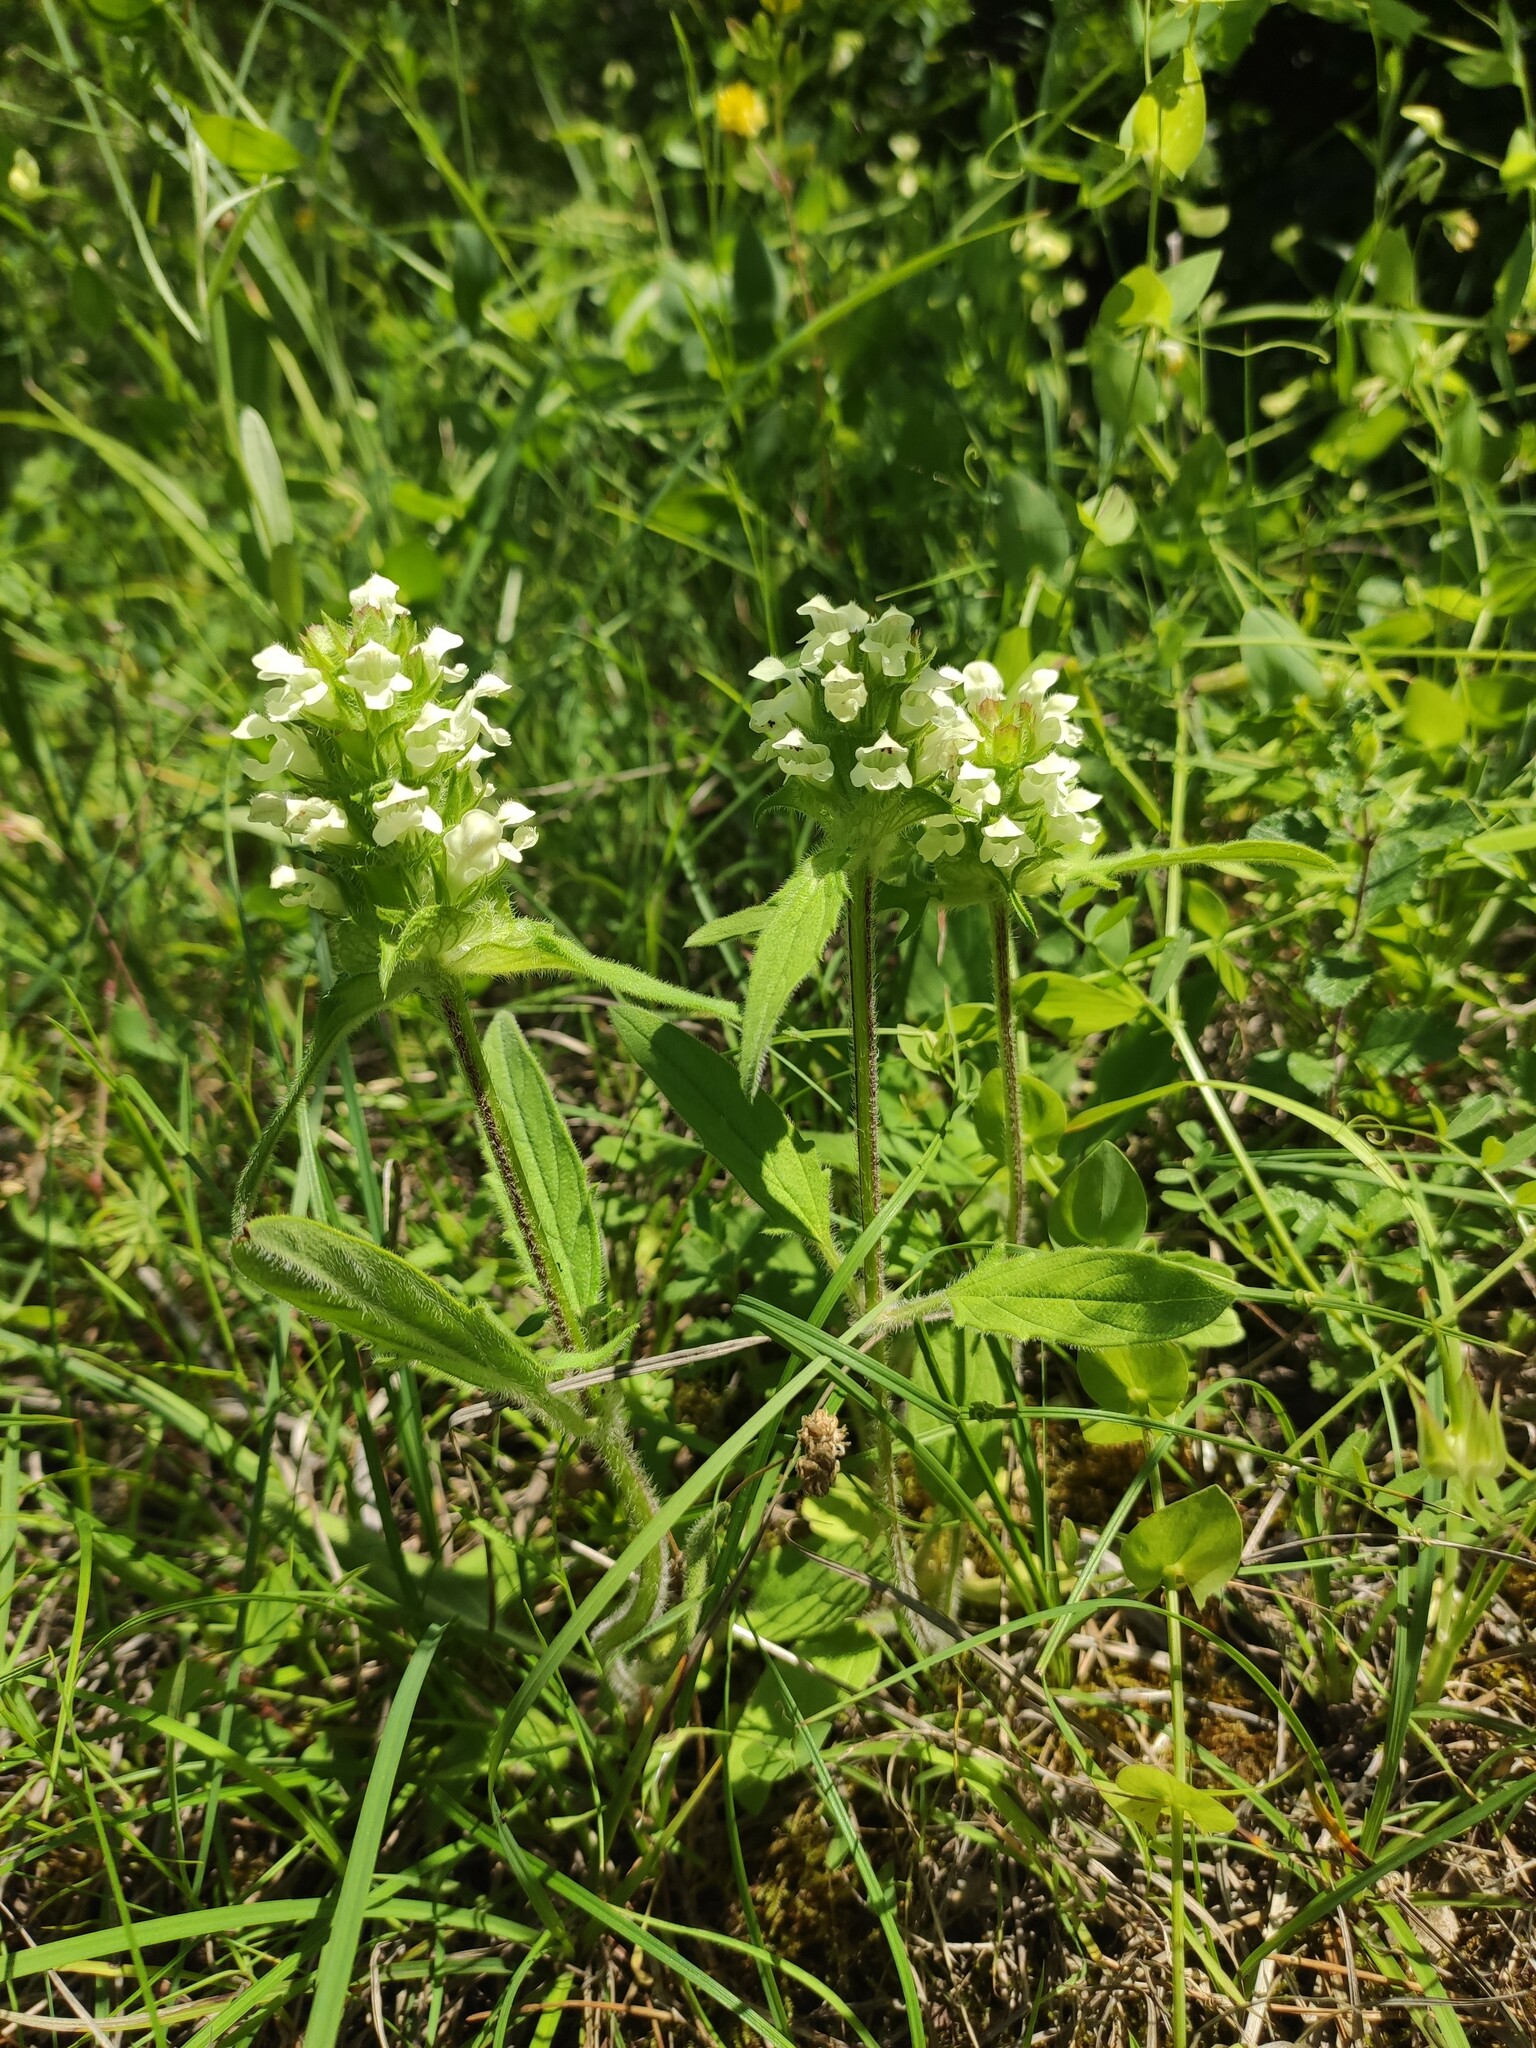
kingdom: Plantae
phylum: Tracheophyta
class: Magnoliopsida
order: Lamiales
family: Lamiaceae
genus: Prunella
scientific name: Prunella laciniata
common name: Cut-leaved selfheal
